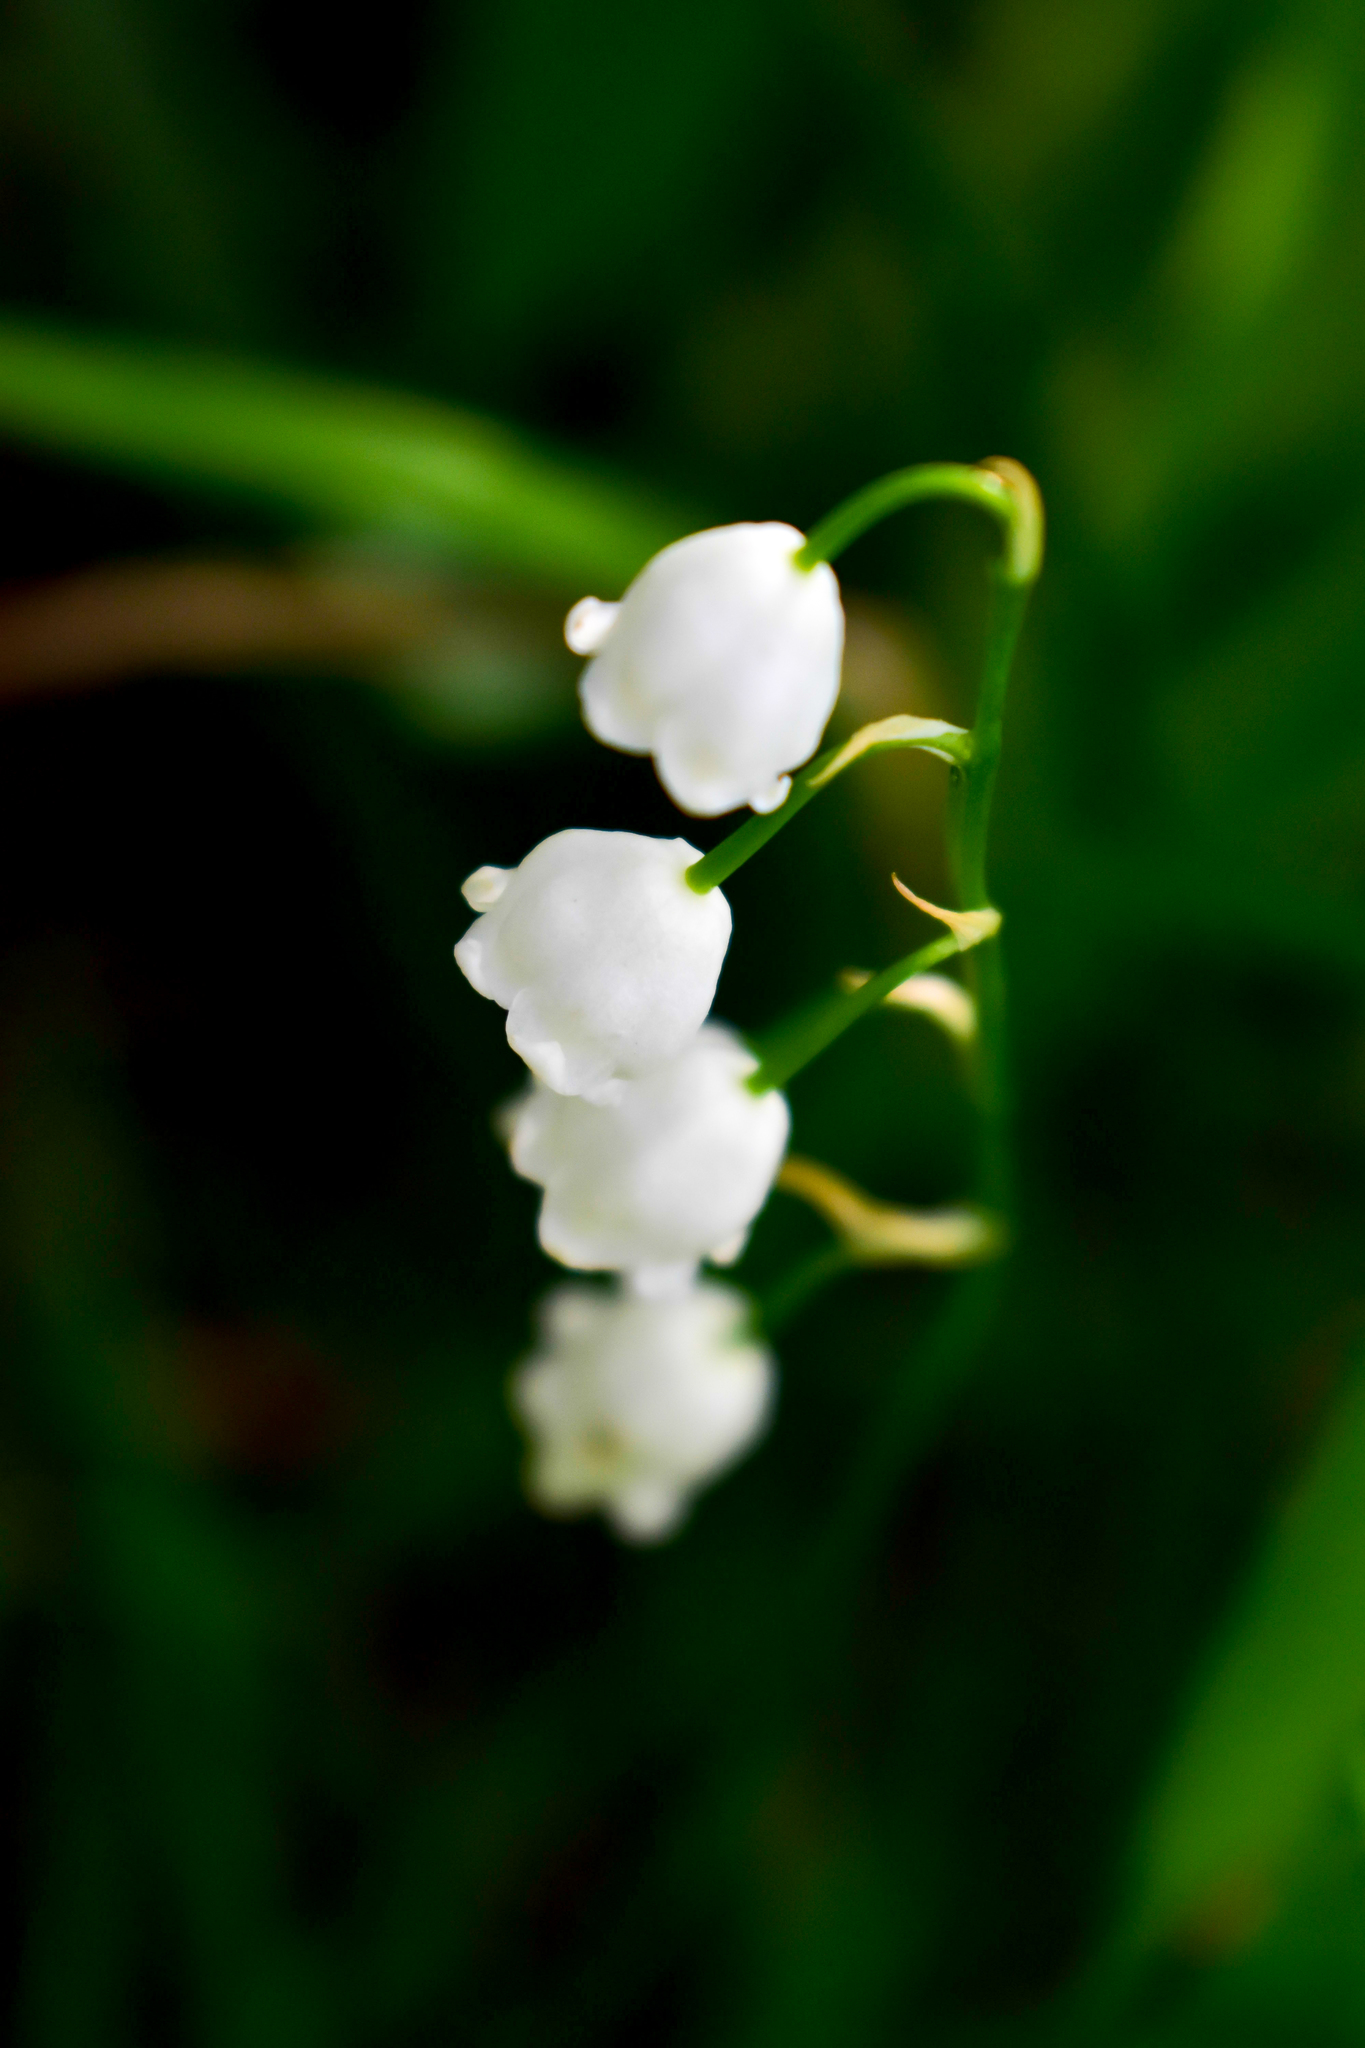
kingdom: Plantae
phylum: Tracheophyta
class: Liliopsida
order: Asparagales
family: Asparagaceae
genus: Convallaria
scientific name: Convallaria majalis
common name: Lily-of-the-valley
